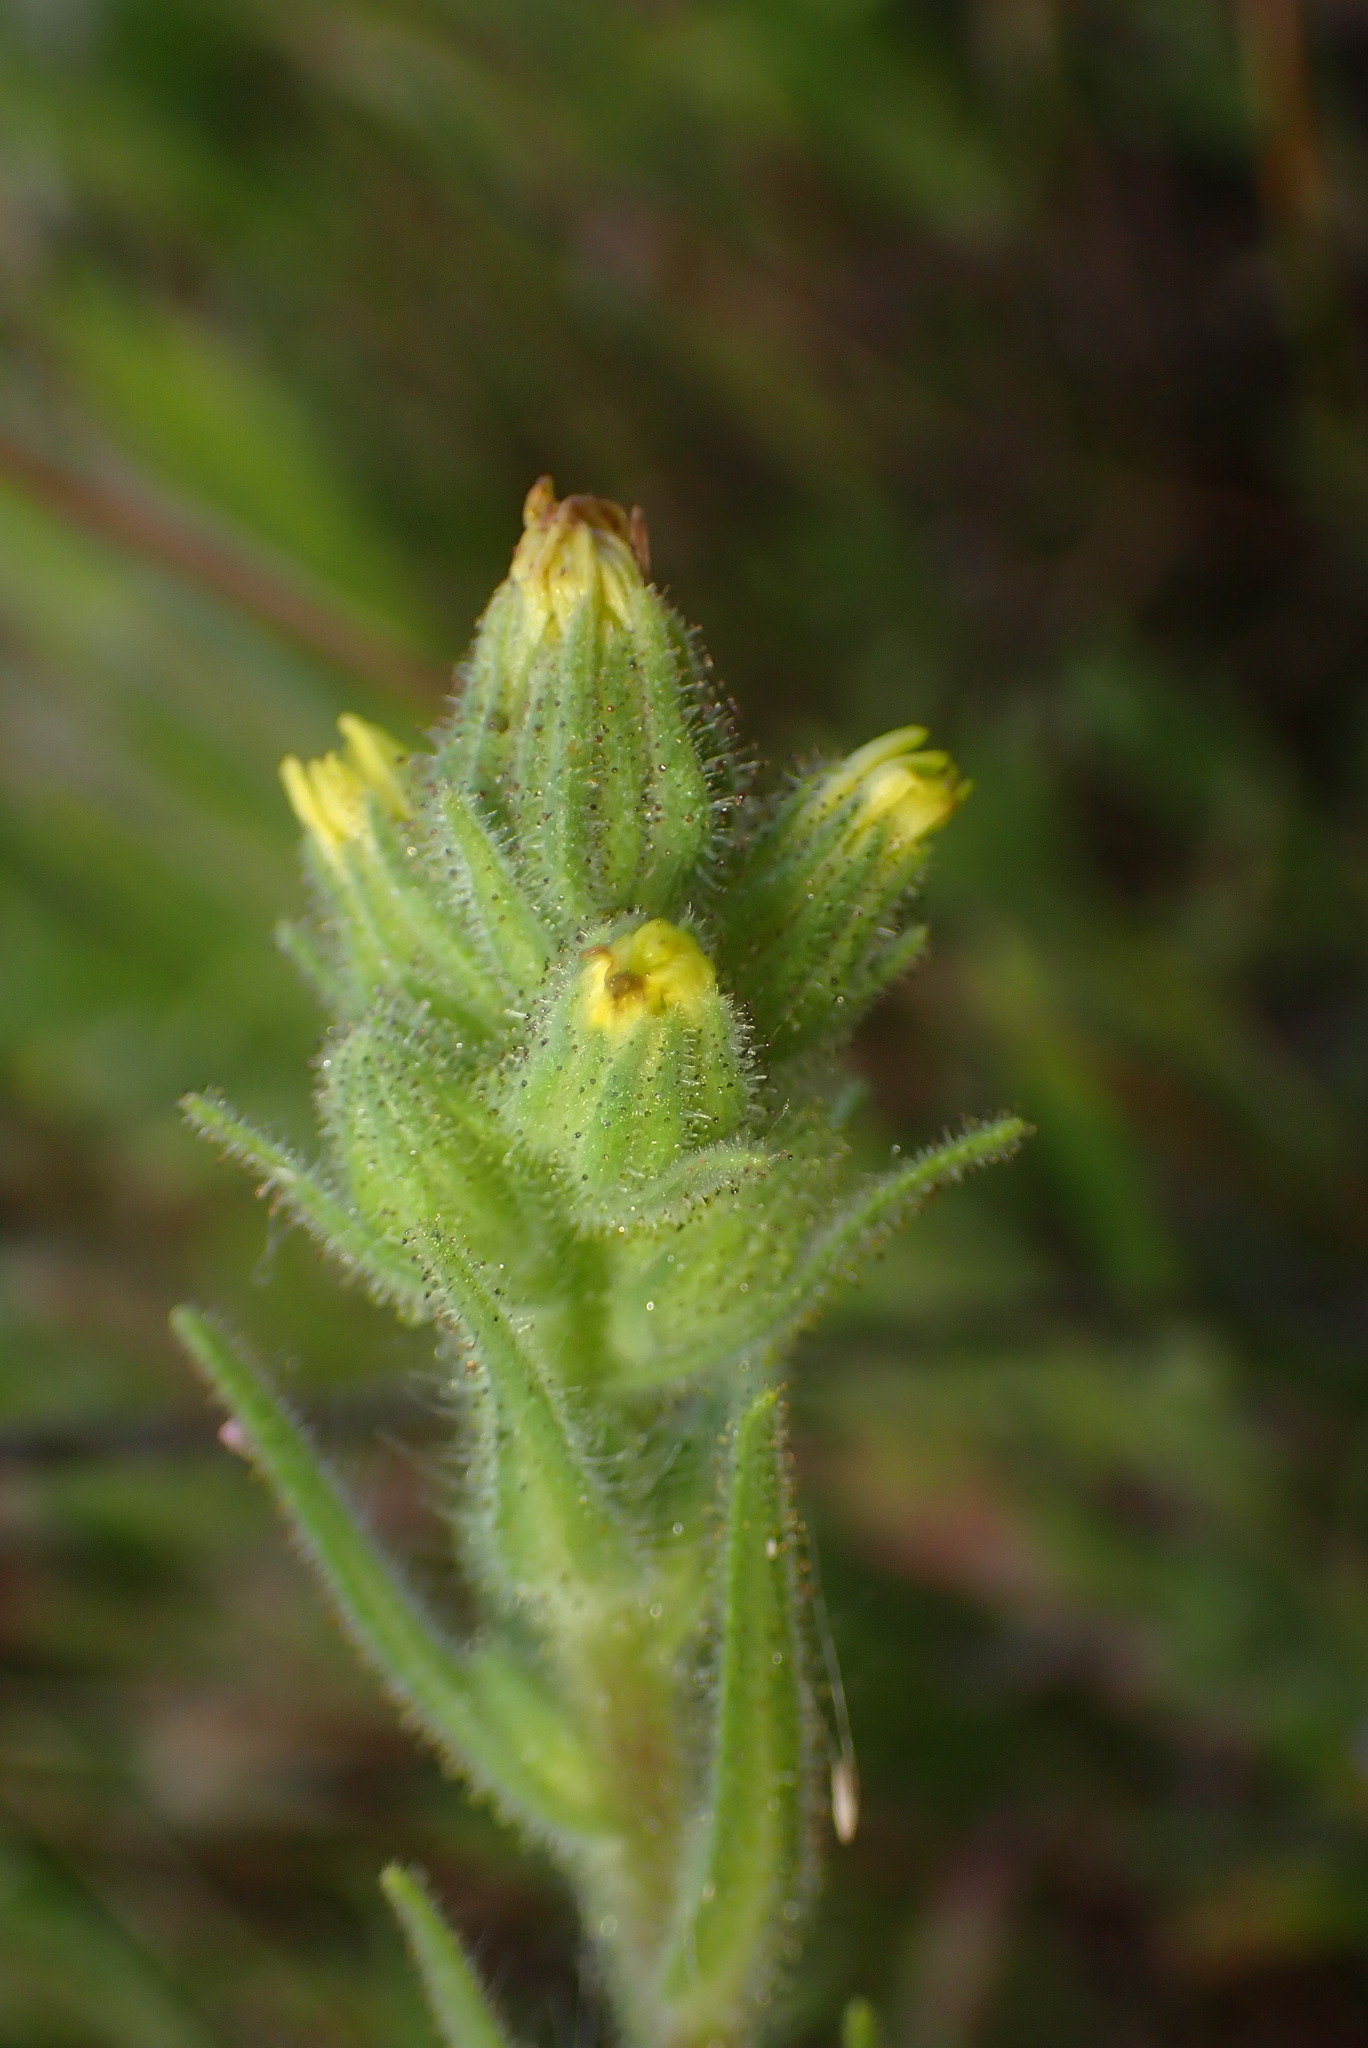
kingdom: Plantae
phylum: Tracheophyta
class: Magnoliopsida
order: Asterales
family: Asteraceae
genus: Madia
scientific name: Madia sativa
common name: Coast tarweed
